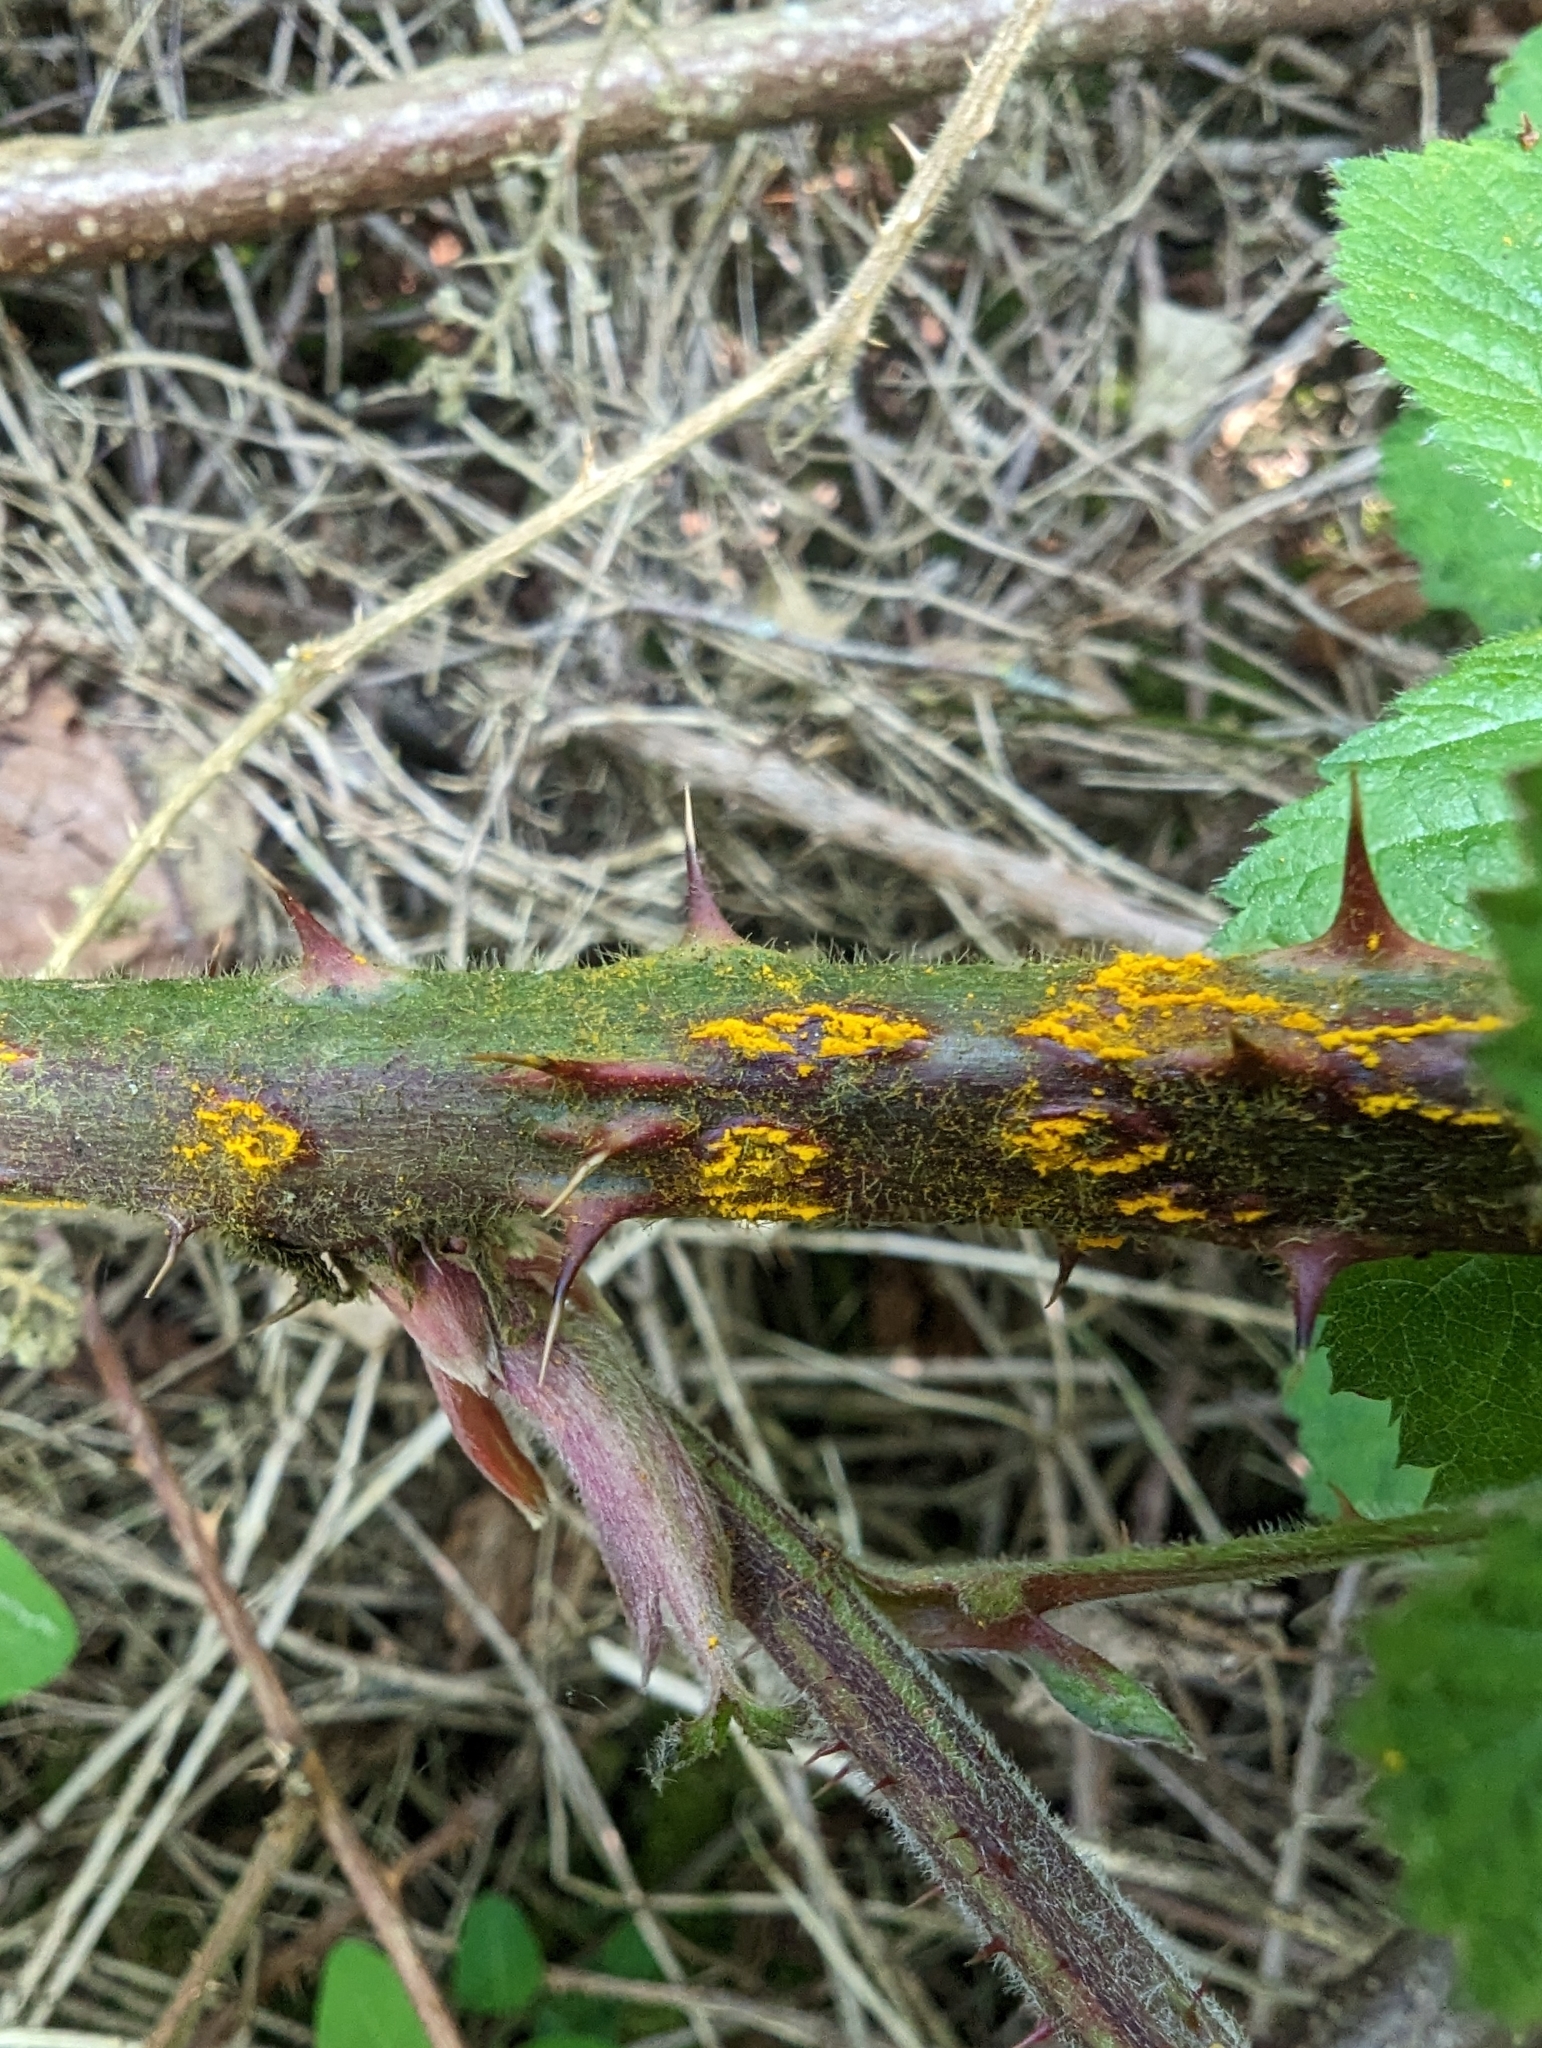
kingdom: Fungi
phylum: Basidiomycota
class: Pucciniomycetes
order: Pucciniales
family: Phragmidiaceae
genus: Kuehneola
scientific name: Kuehneola uredinis
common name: Bramble stem rust
